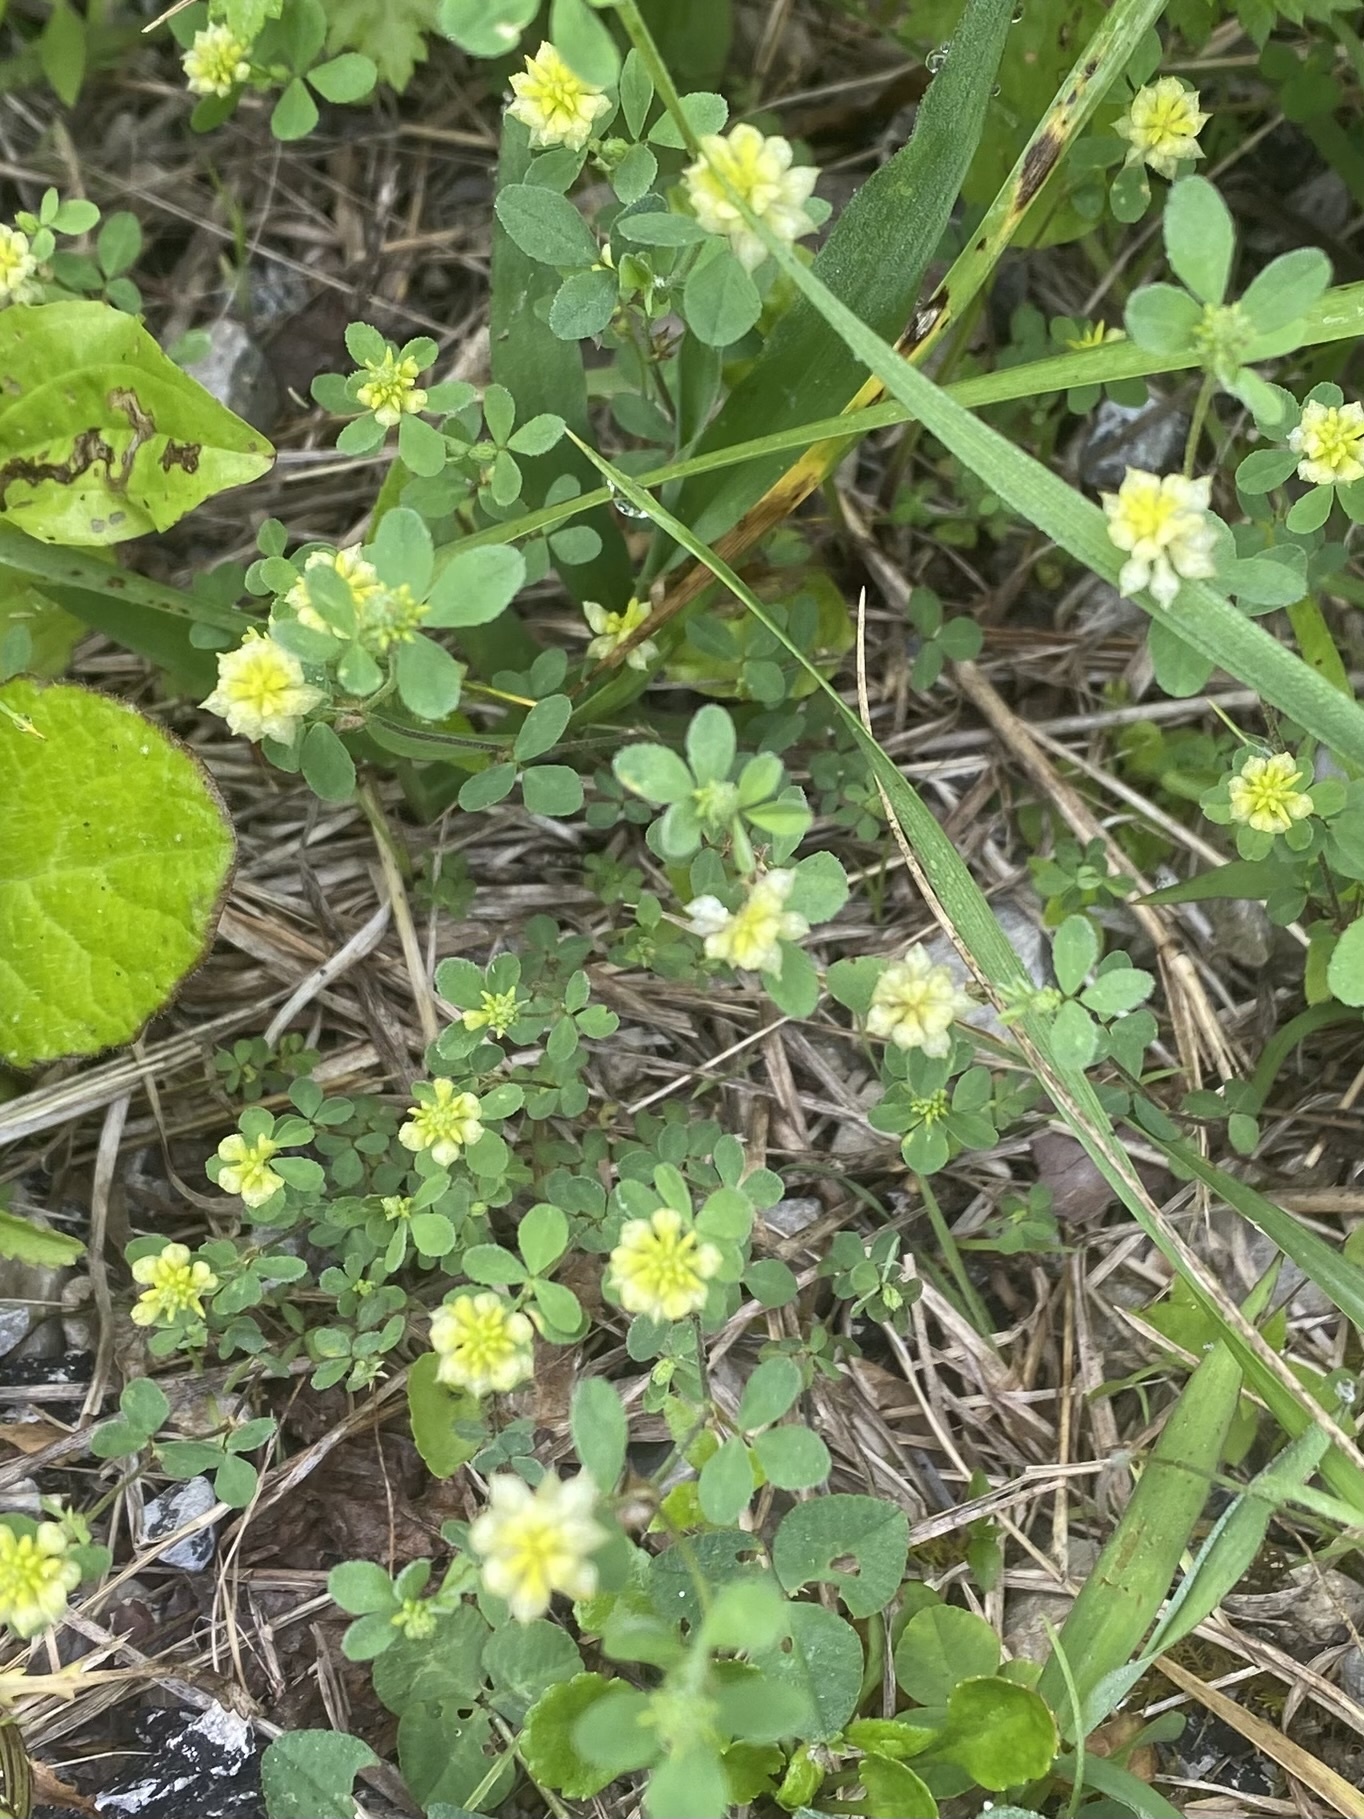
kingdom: Plantae
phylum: Tracheophyta
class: Magnoliopsida
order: Fabales
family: Fabaceae
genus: Trifolium
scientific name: Trifolium campestre
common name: Field clover
